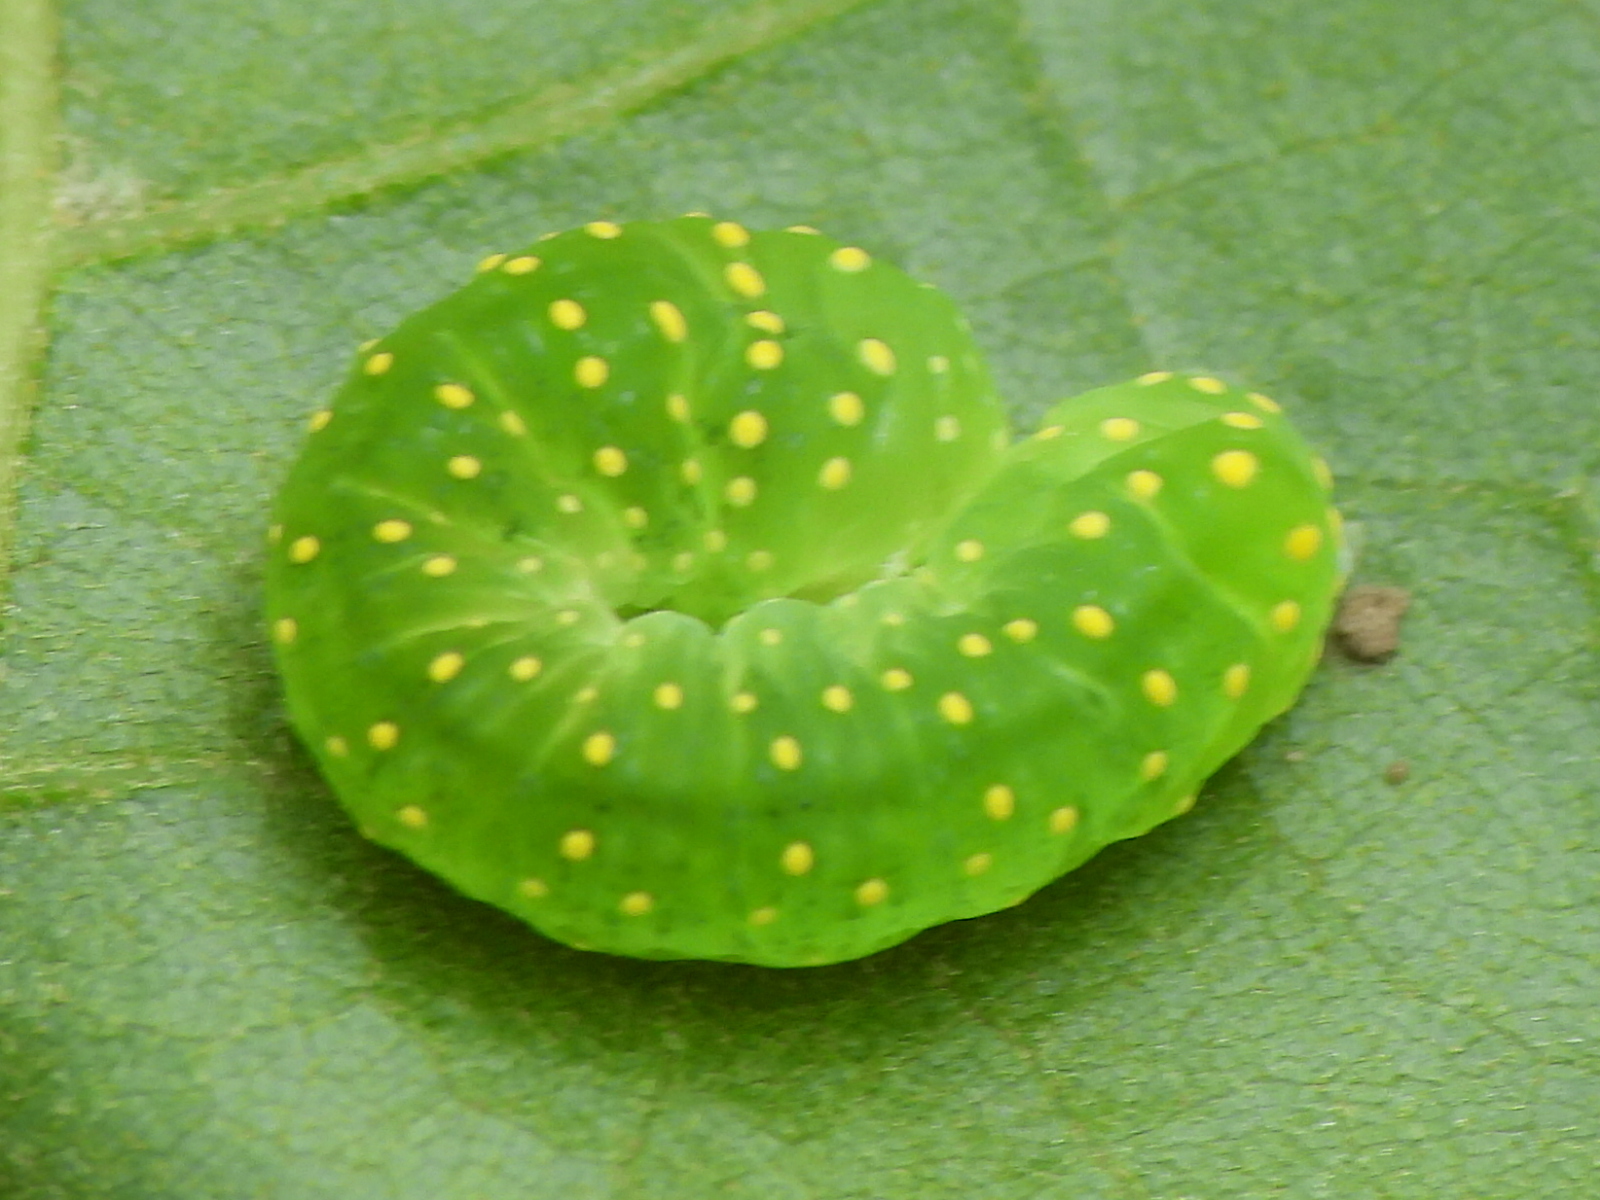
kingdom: Animalia
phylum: Arthropoda
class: Insecta
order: Lepidoptera
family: Noctuidae
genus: Phosphila
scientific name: Phosphila miselioides
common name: Spotted phosphila moth
